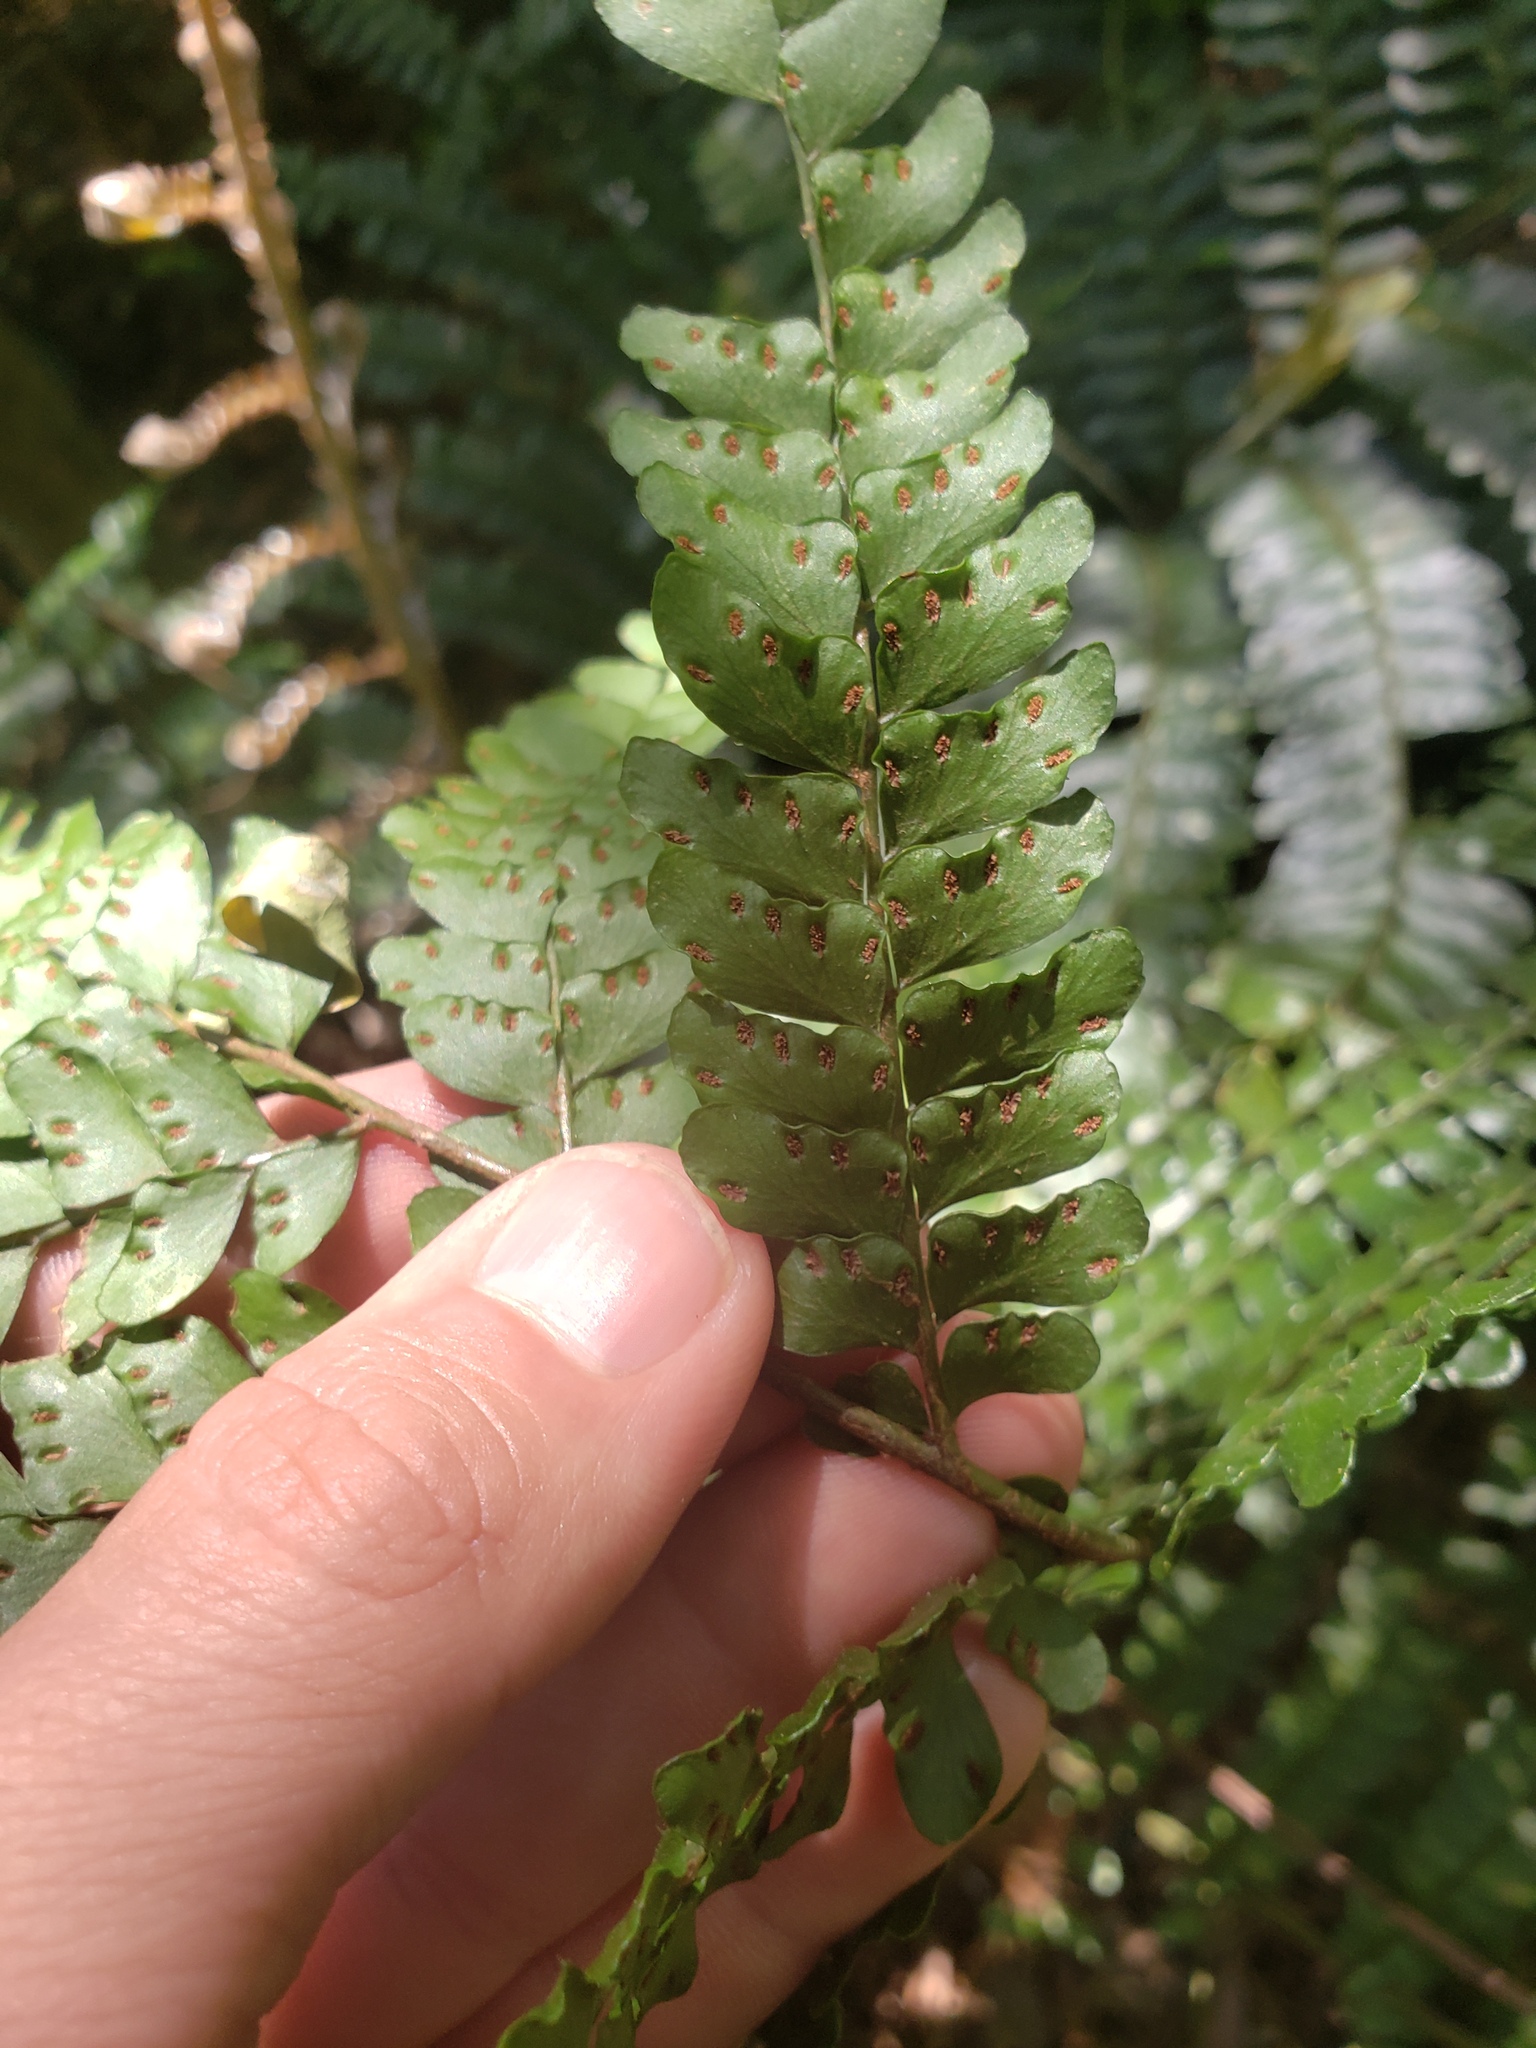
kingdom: Plantae
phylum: Tracheophyta
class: Polypodiopsida
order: Polypodiales
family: Didymochlaenaceae
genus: Didymochlaena
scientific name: Didymochlaena truncatula
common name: Mahogany fern
